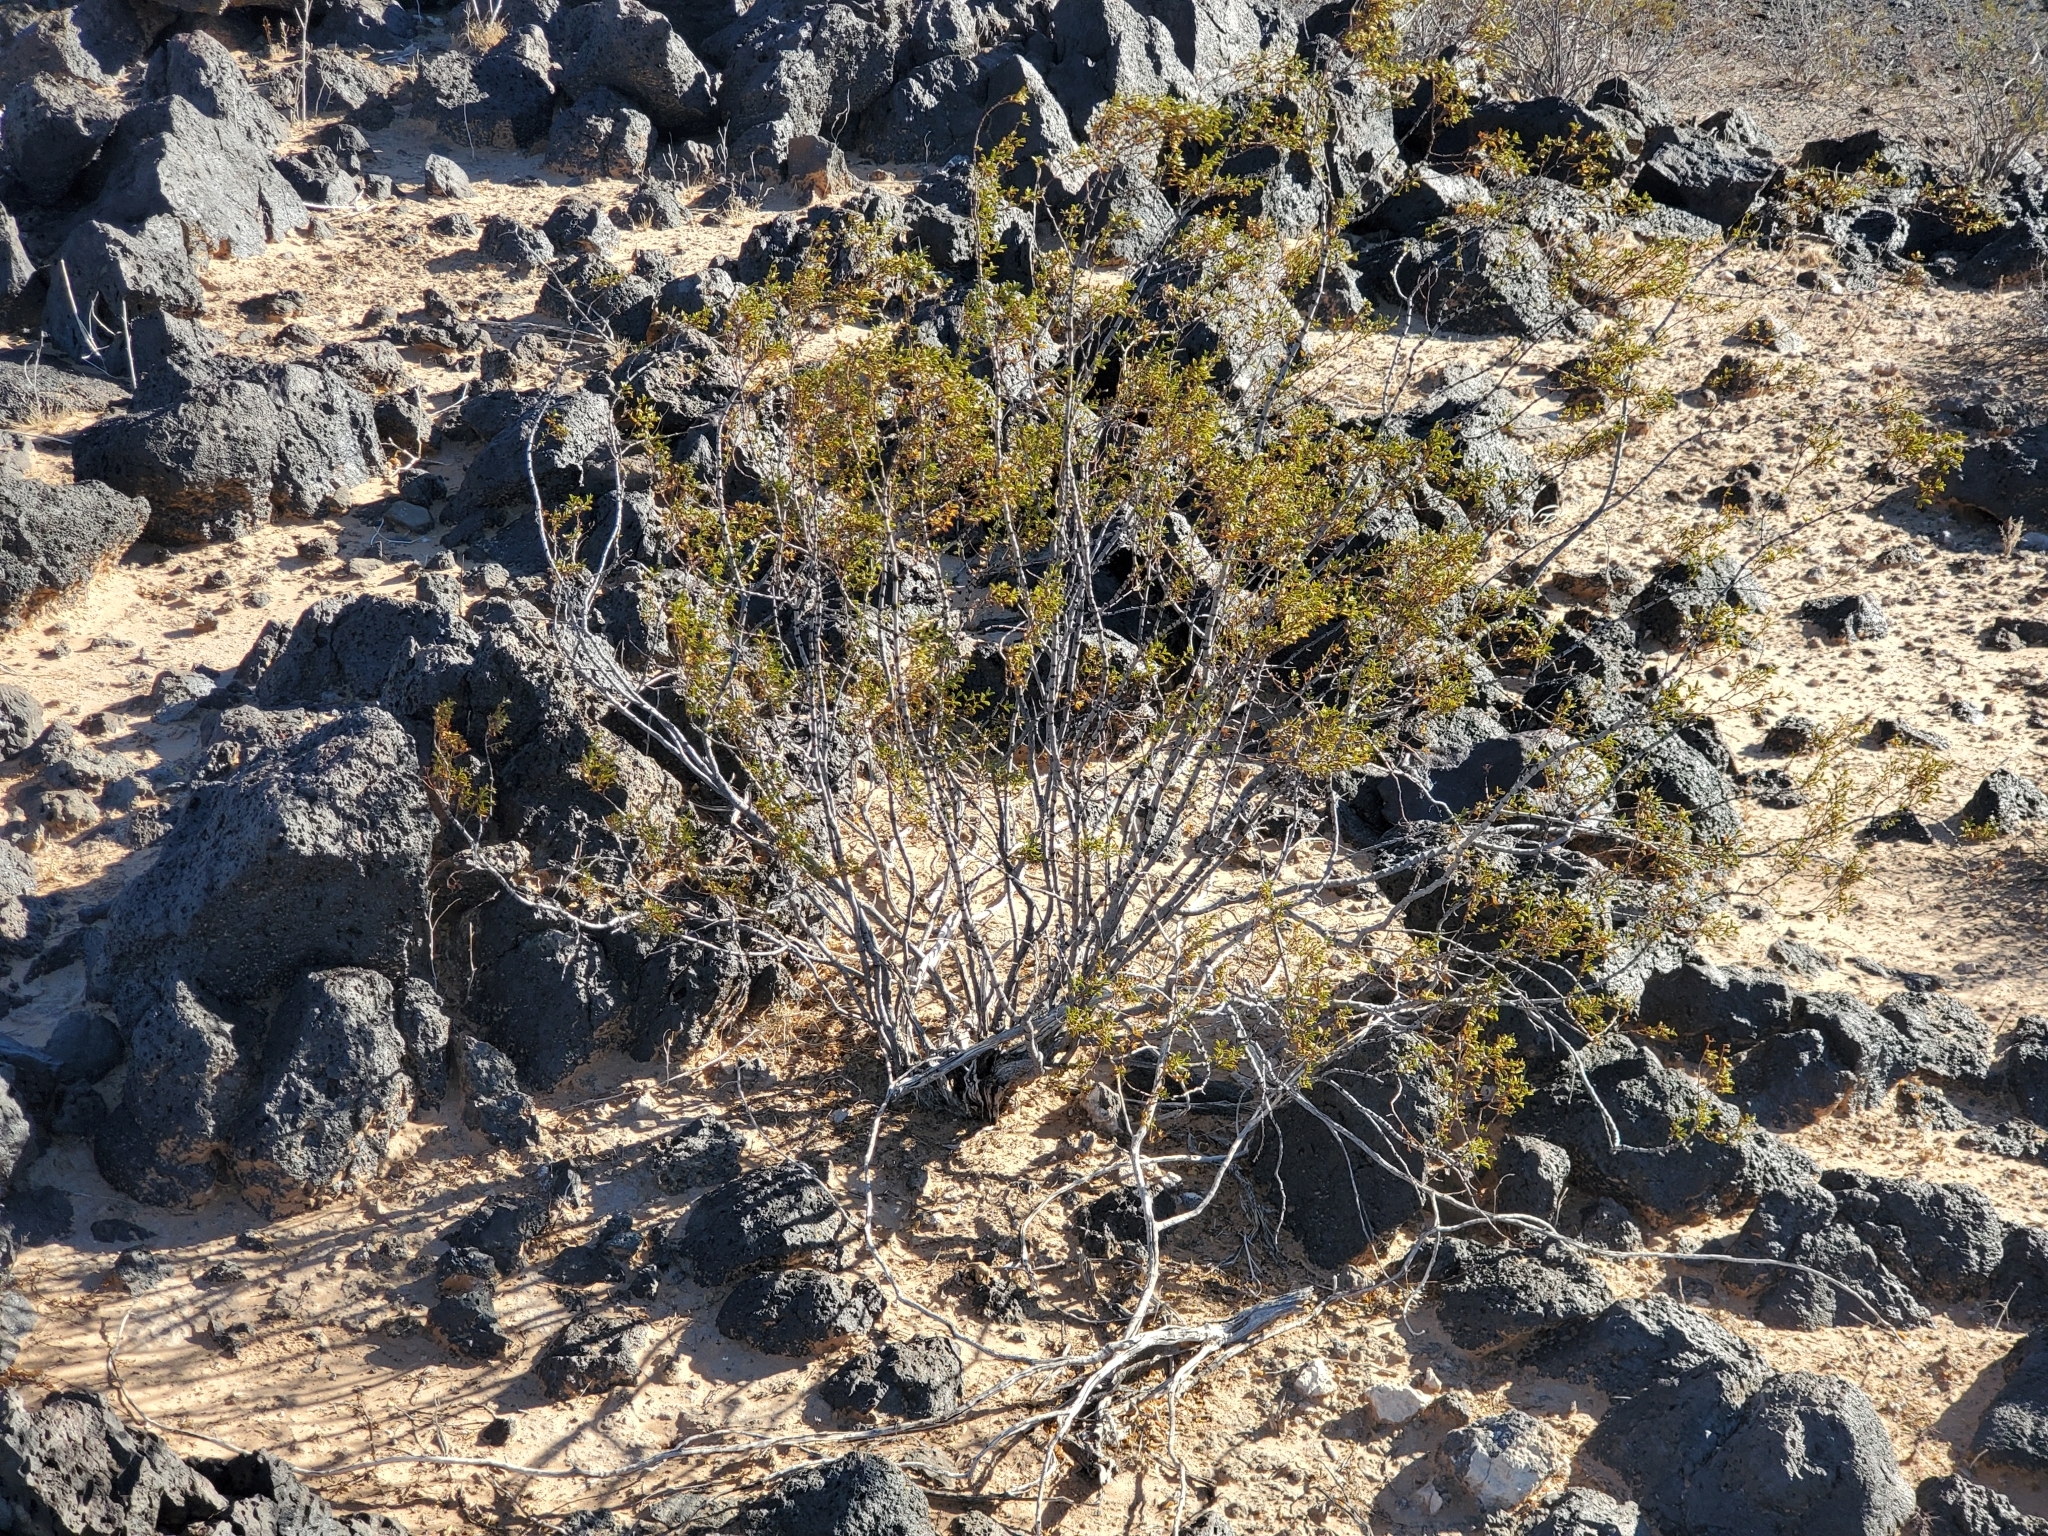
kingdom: Plantae
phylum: Tracheophyta
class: Magnoliopsida
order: Zygophyllales
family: Zygophyllaceae
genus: Larrea
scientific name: Larrea tridentata
